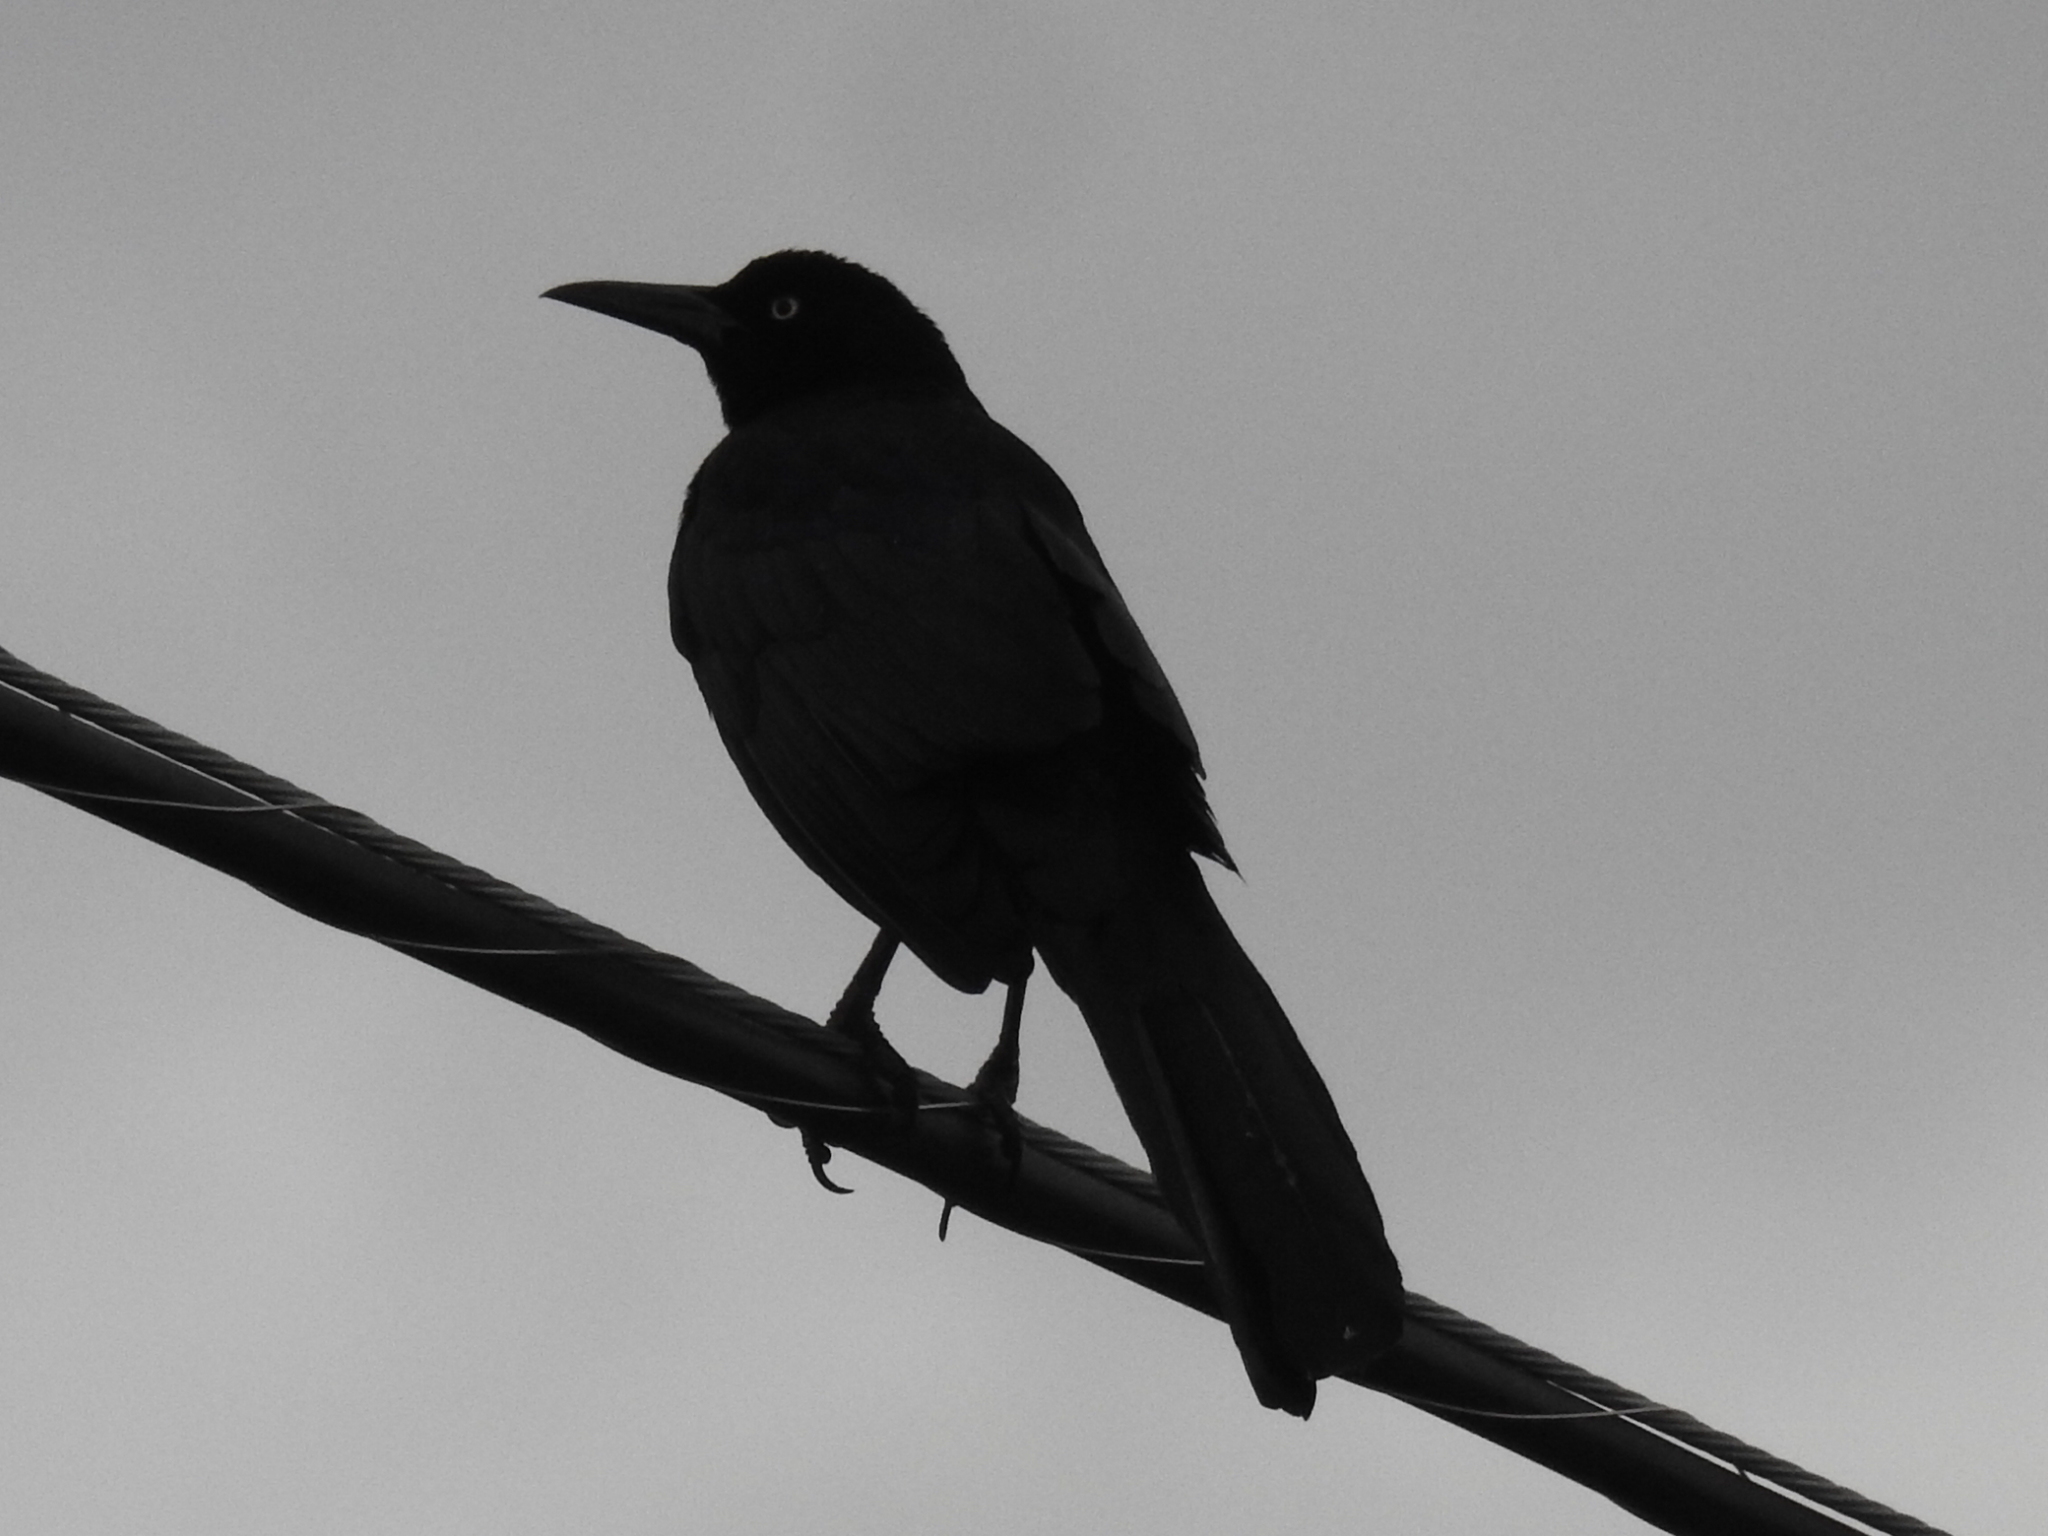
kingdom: Animalia
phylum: Chordata
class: Aves
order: Passeriformes
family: Icteridae
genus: Quiscalus
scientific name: Quiscalus mexicanus
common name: Great-tailed grackle
